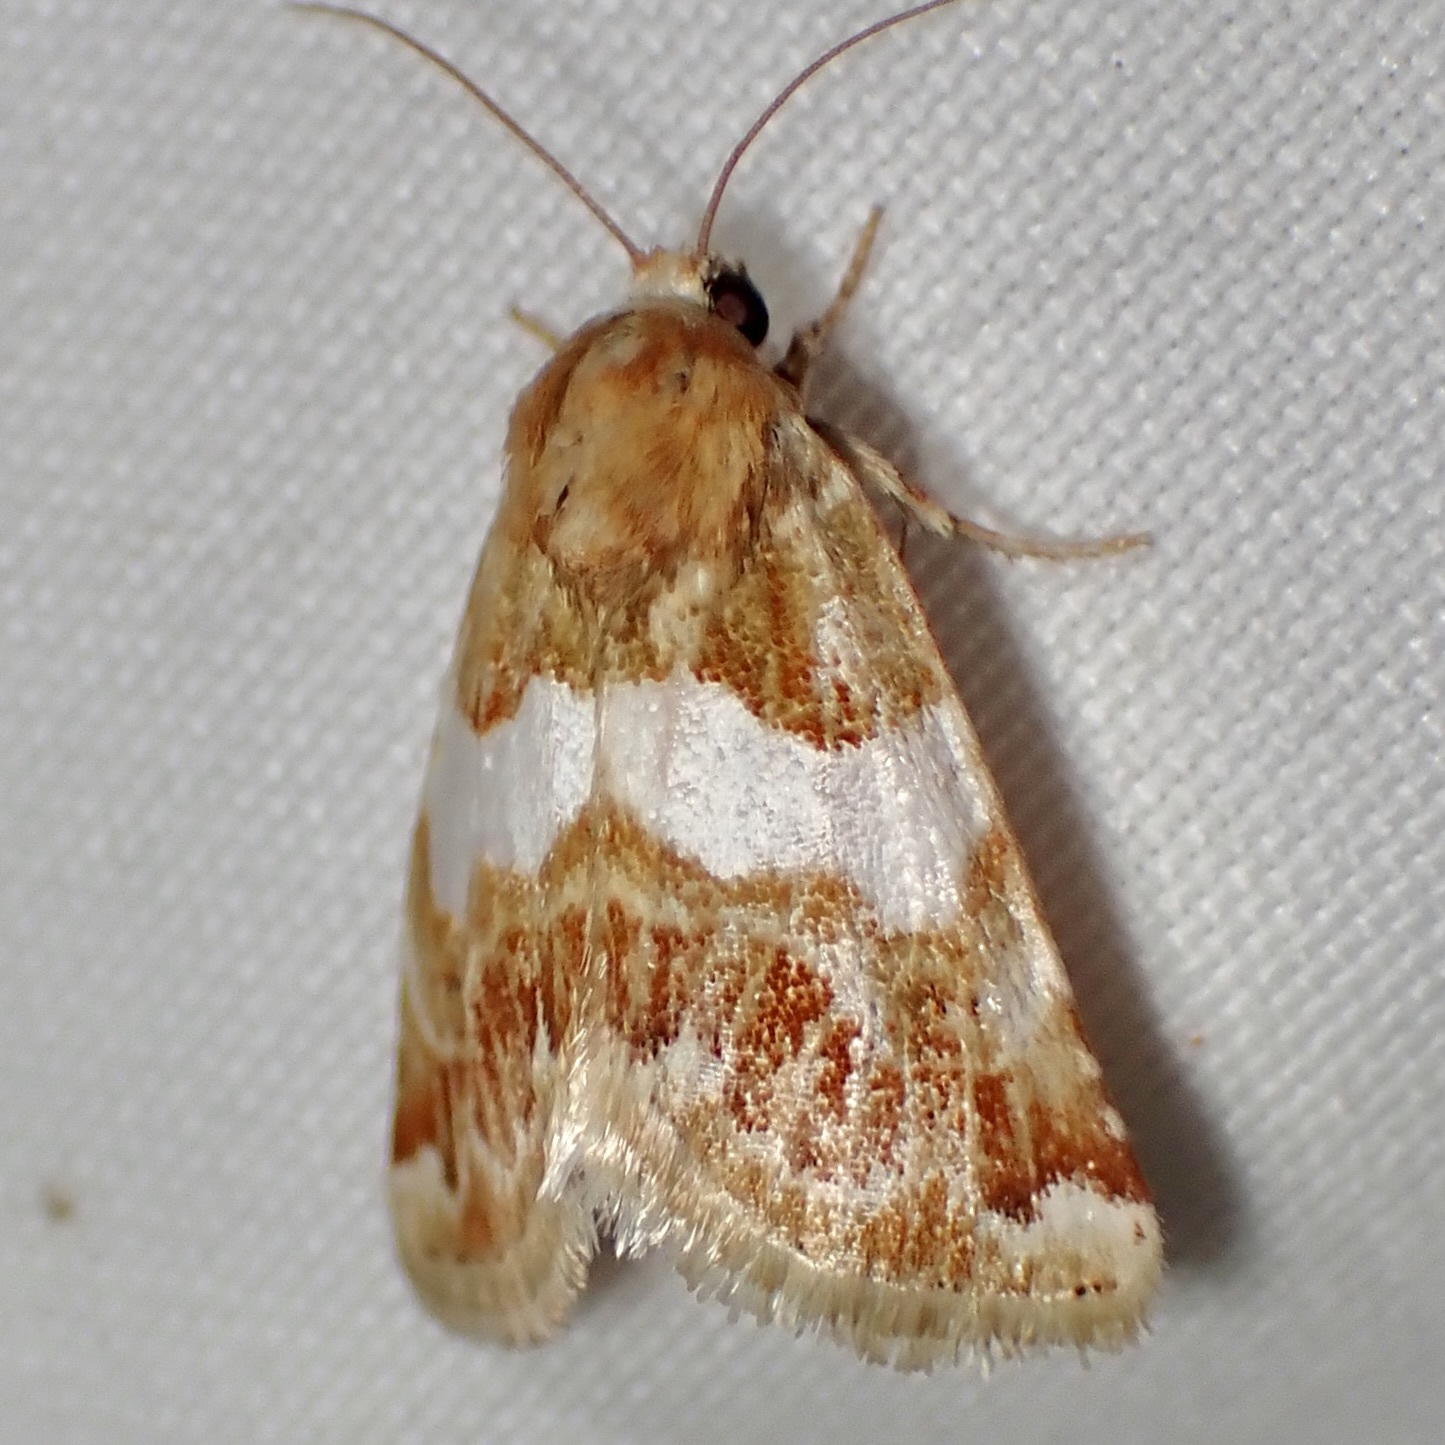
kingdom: Animalia
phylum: Arthropoda
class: Insecta
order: Lepidoptera
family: Noctuidae
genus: Schinia
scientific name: Schinia argentifascia
